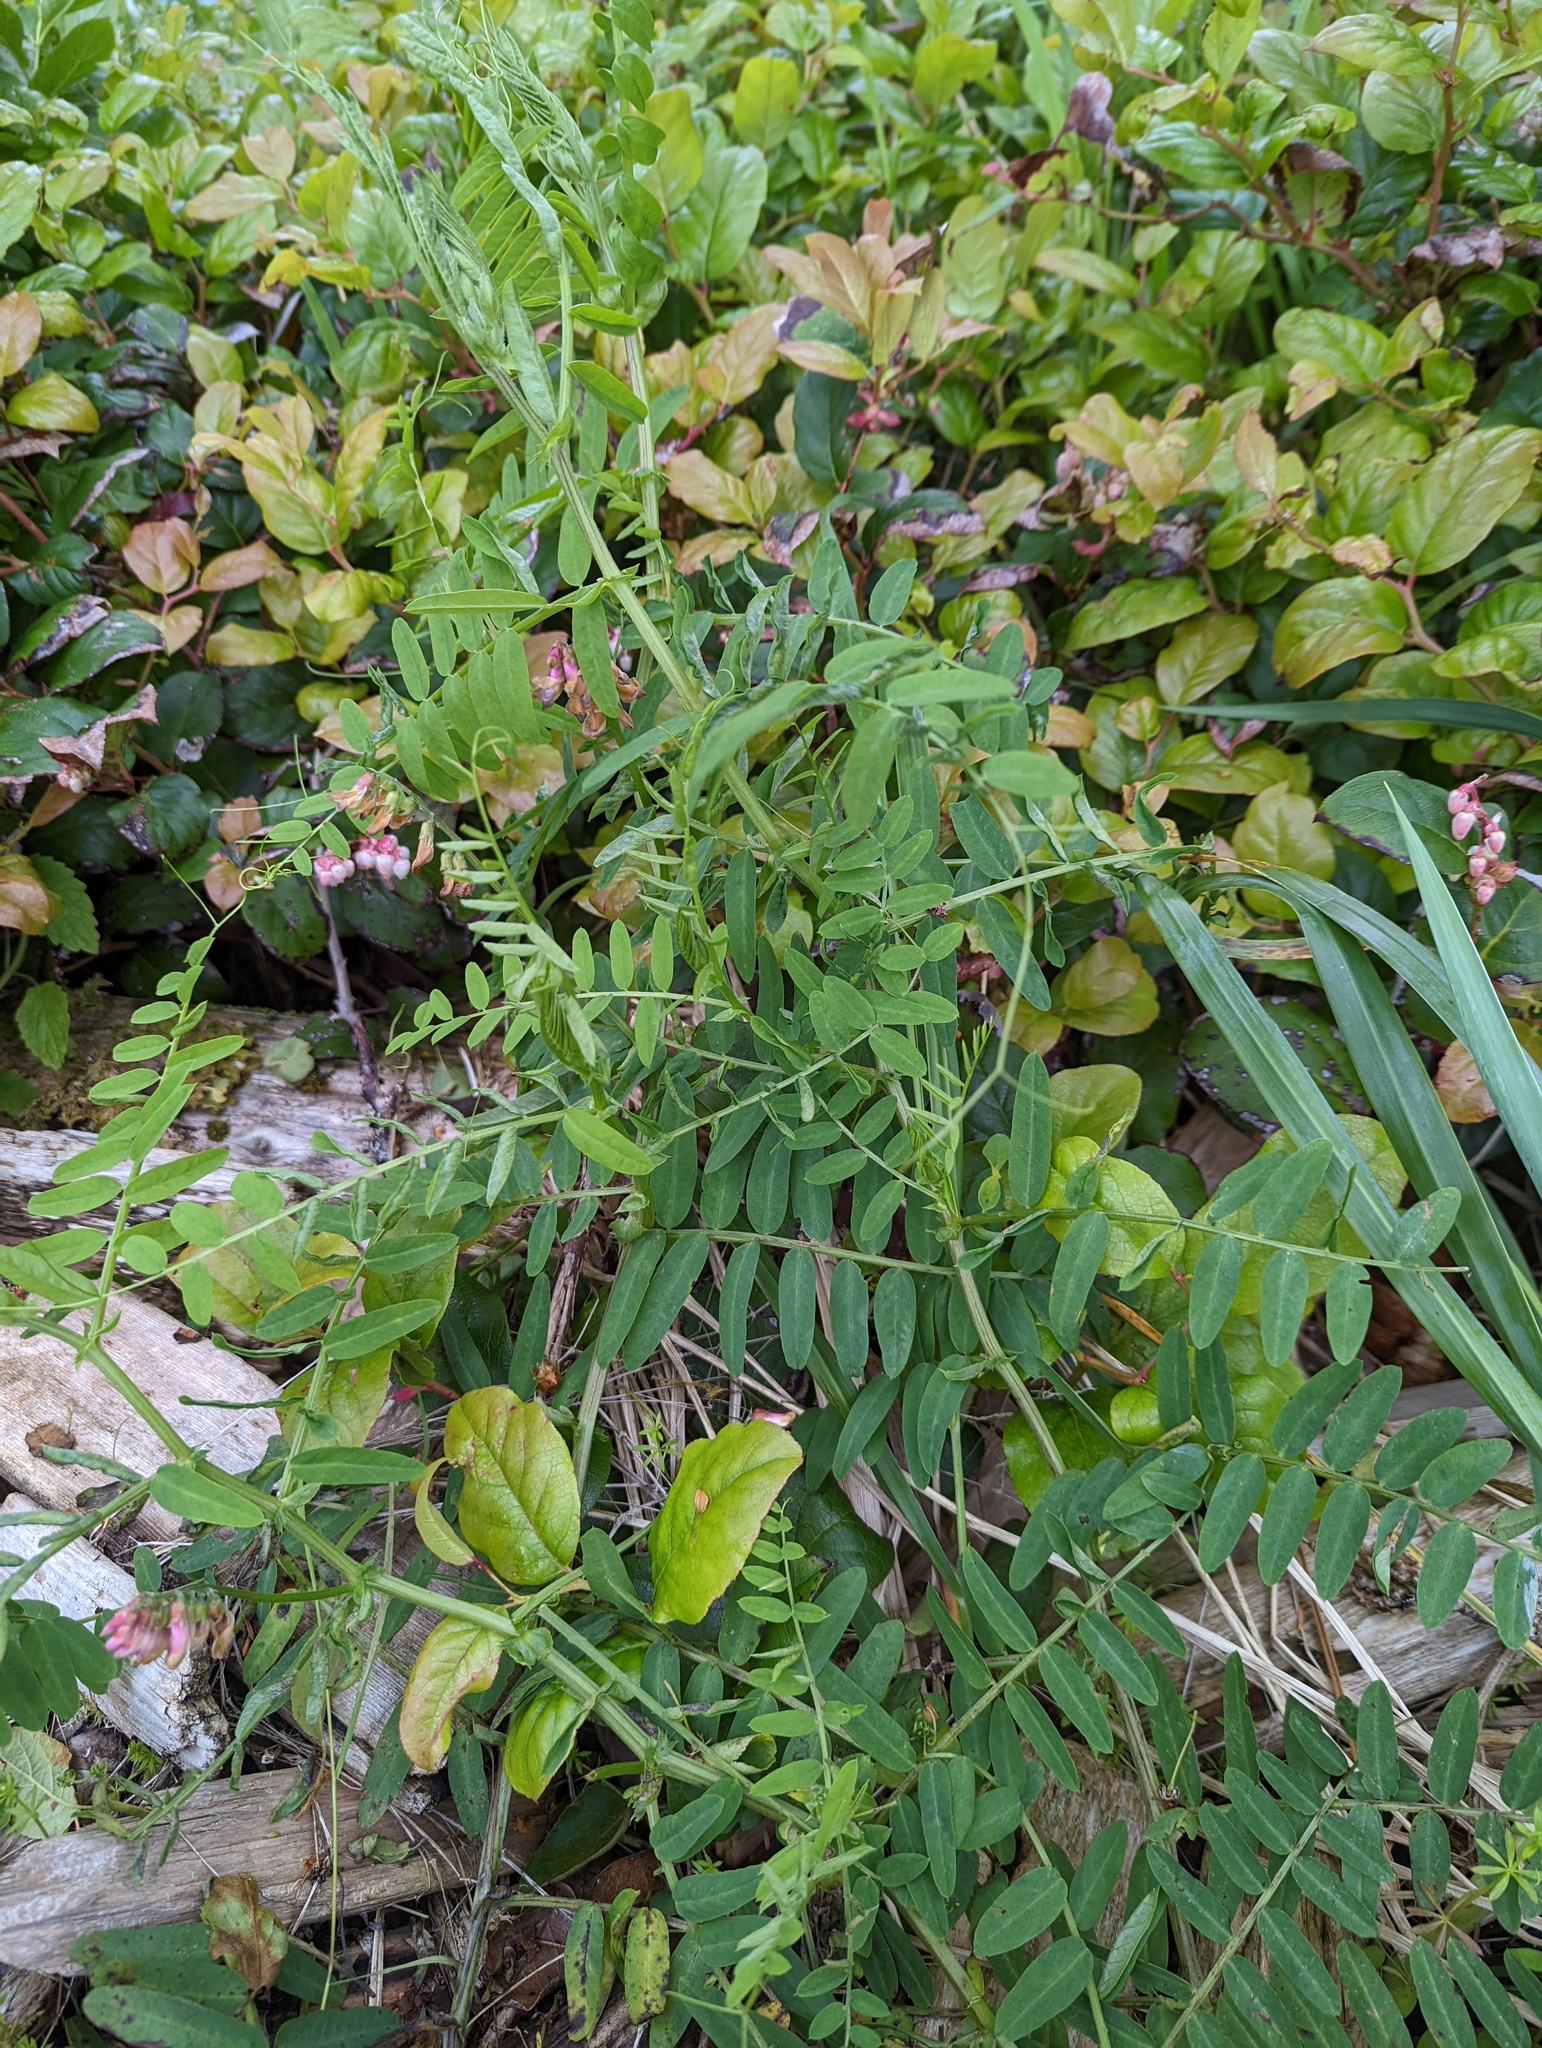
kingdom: Plantae
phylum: Tracheophyta
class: Magnoliopsida
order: Fabales
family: Fabaceae
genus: Vicia
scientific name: Vicia
